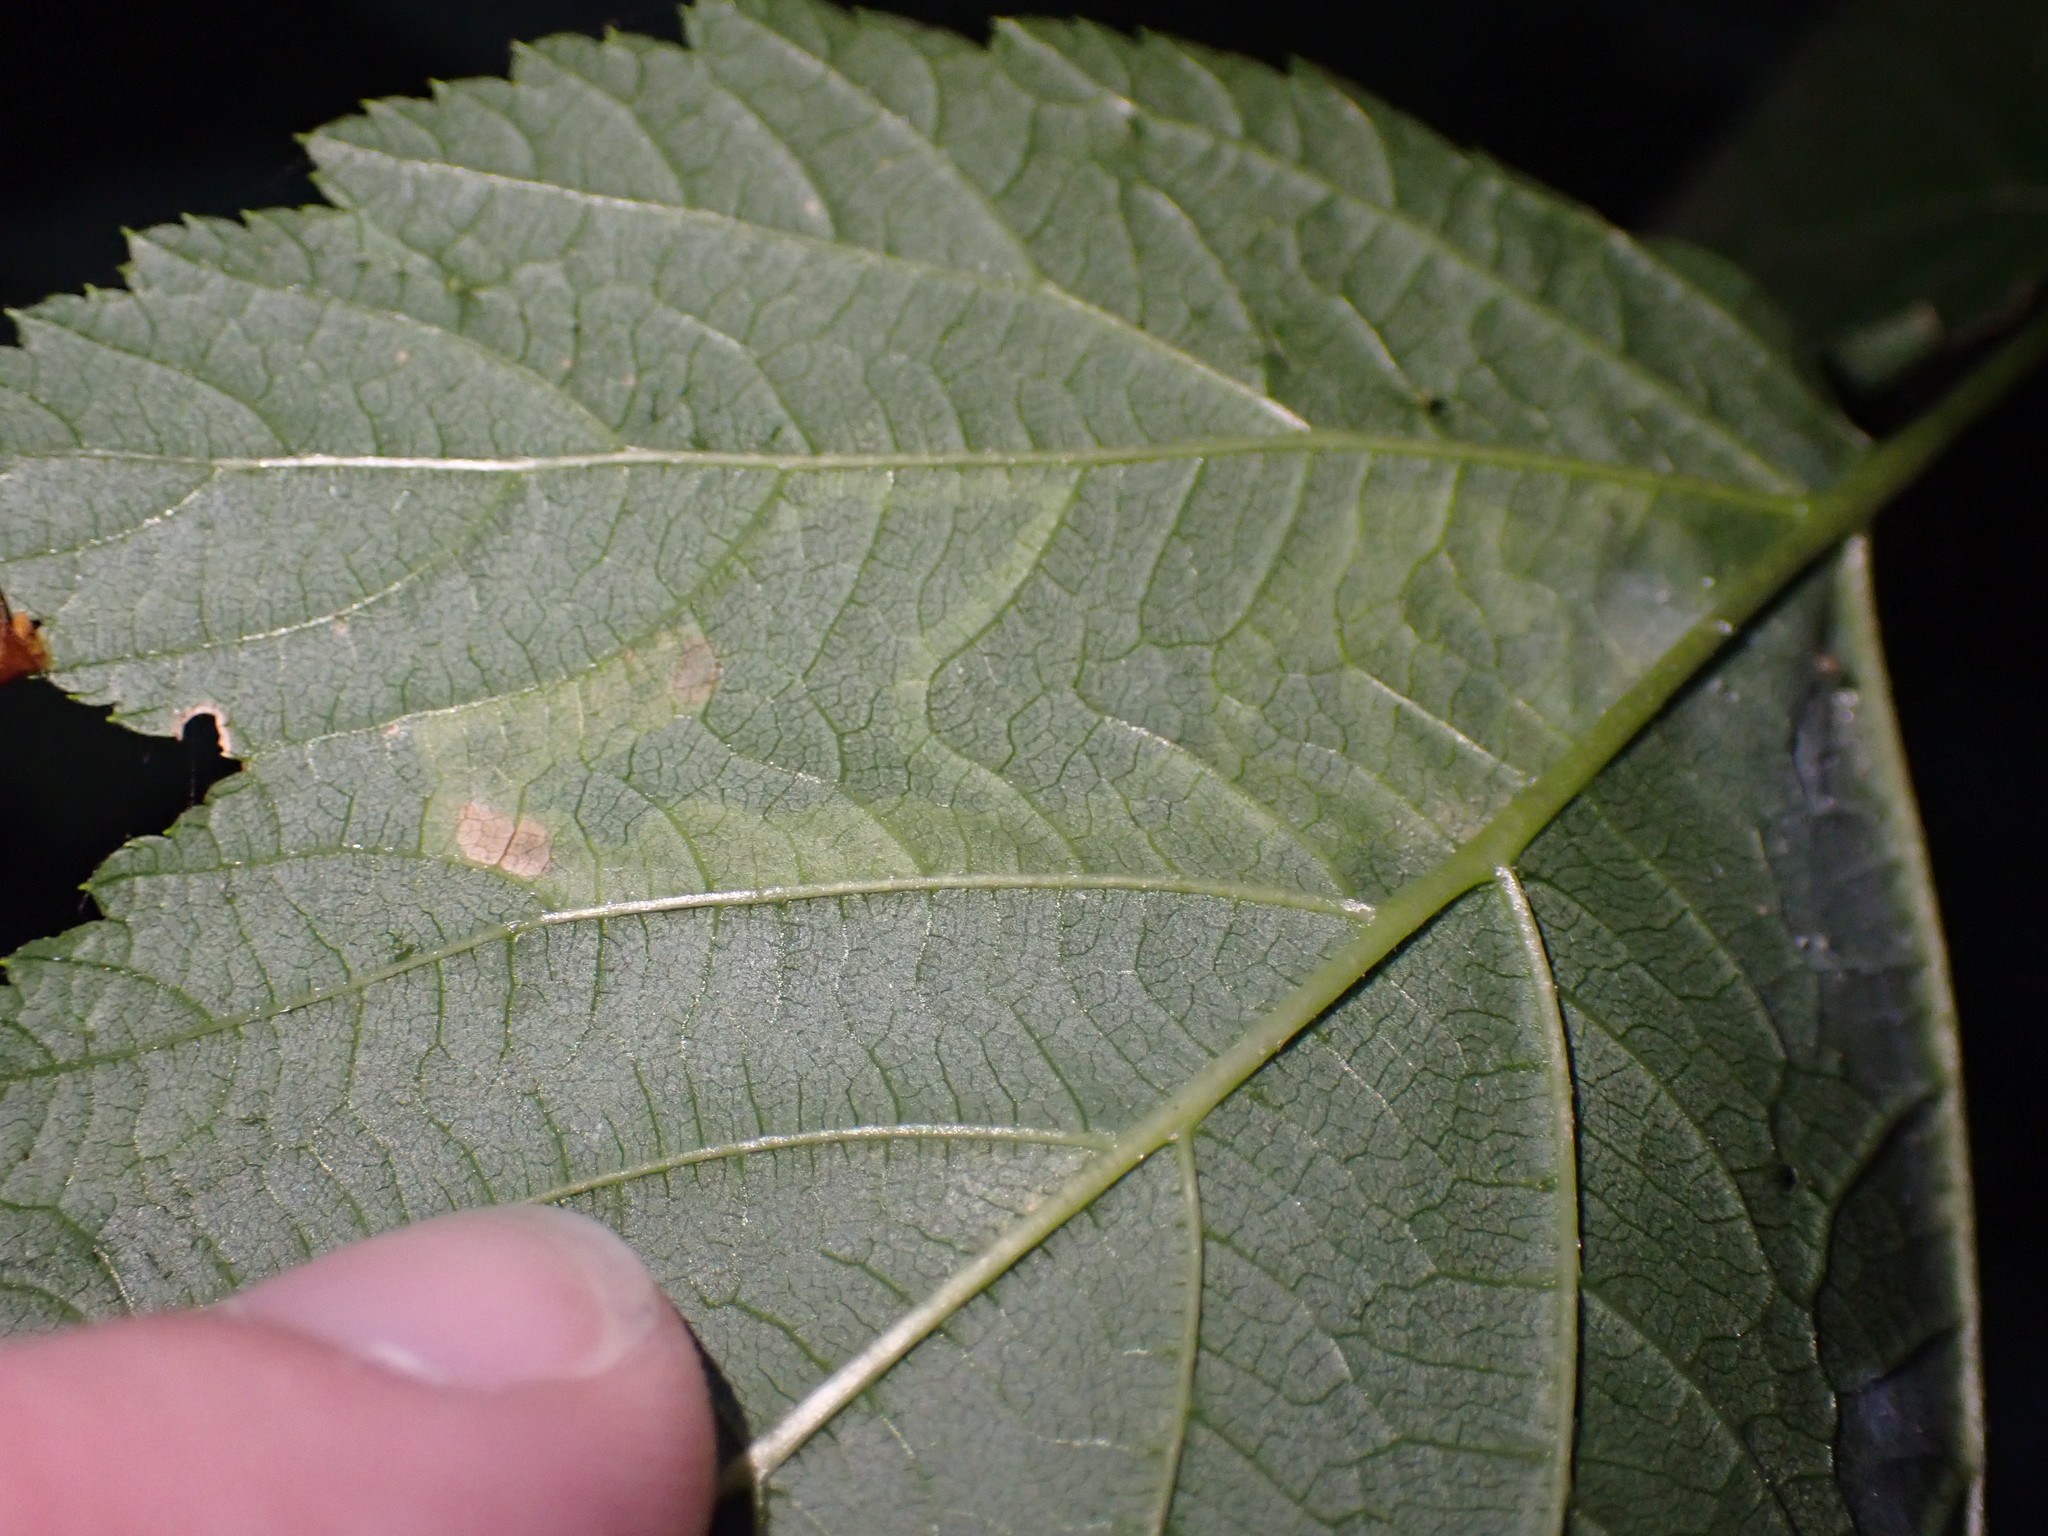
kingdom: Animalia
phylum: Arthropoda
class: Insecta
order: Diptera
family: Agromyzidae
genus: Agromyza
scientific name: Agromyza vockerothi
